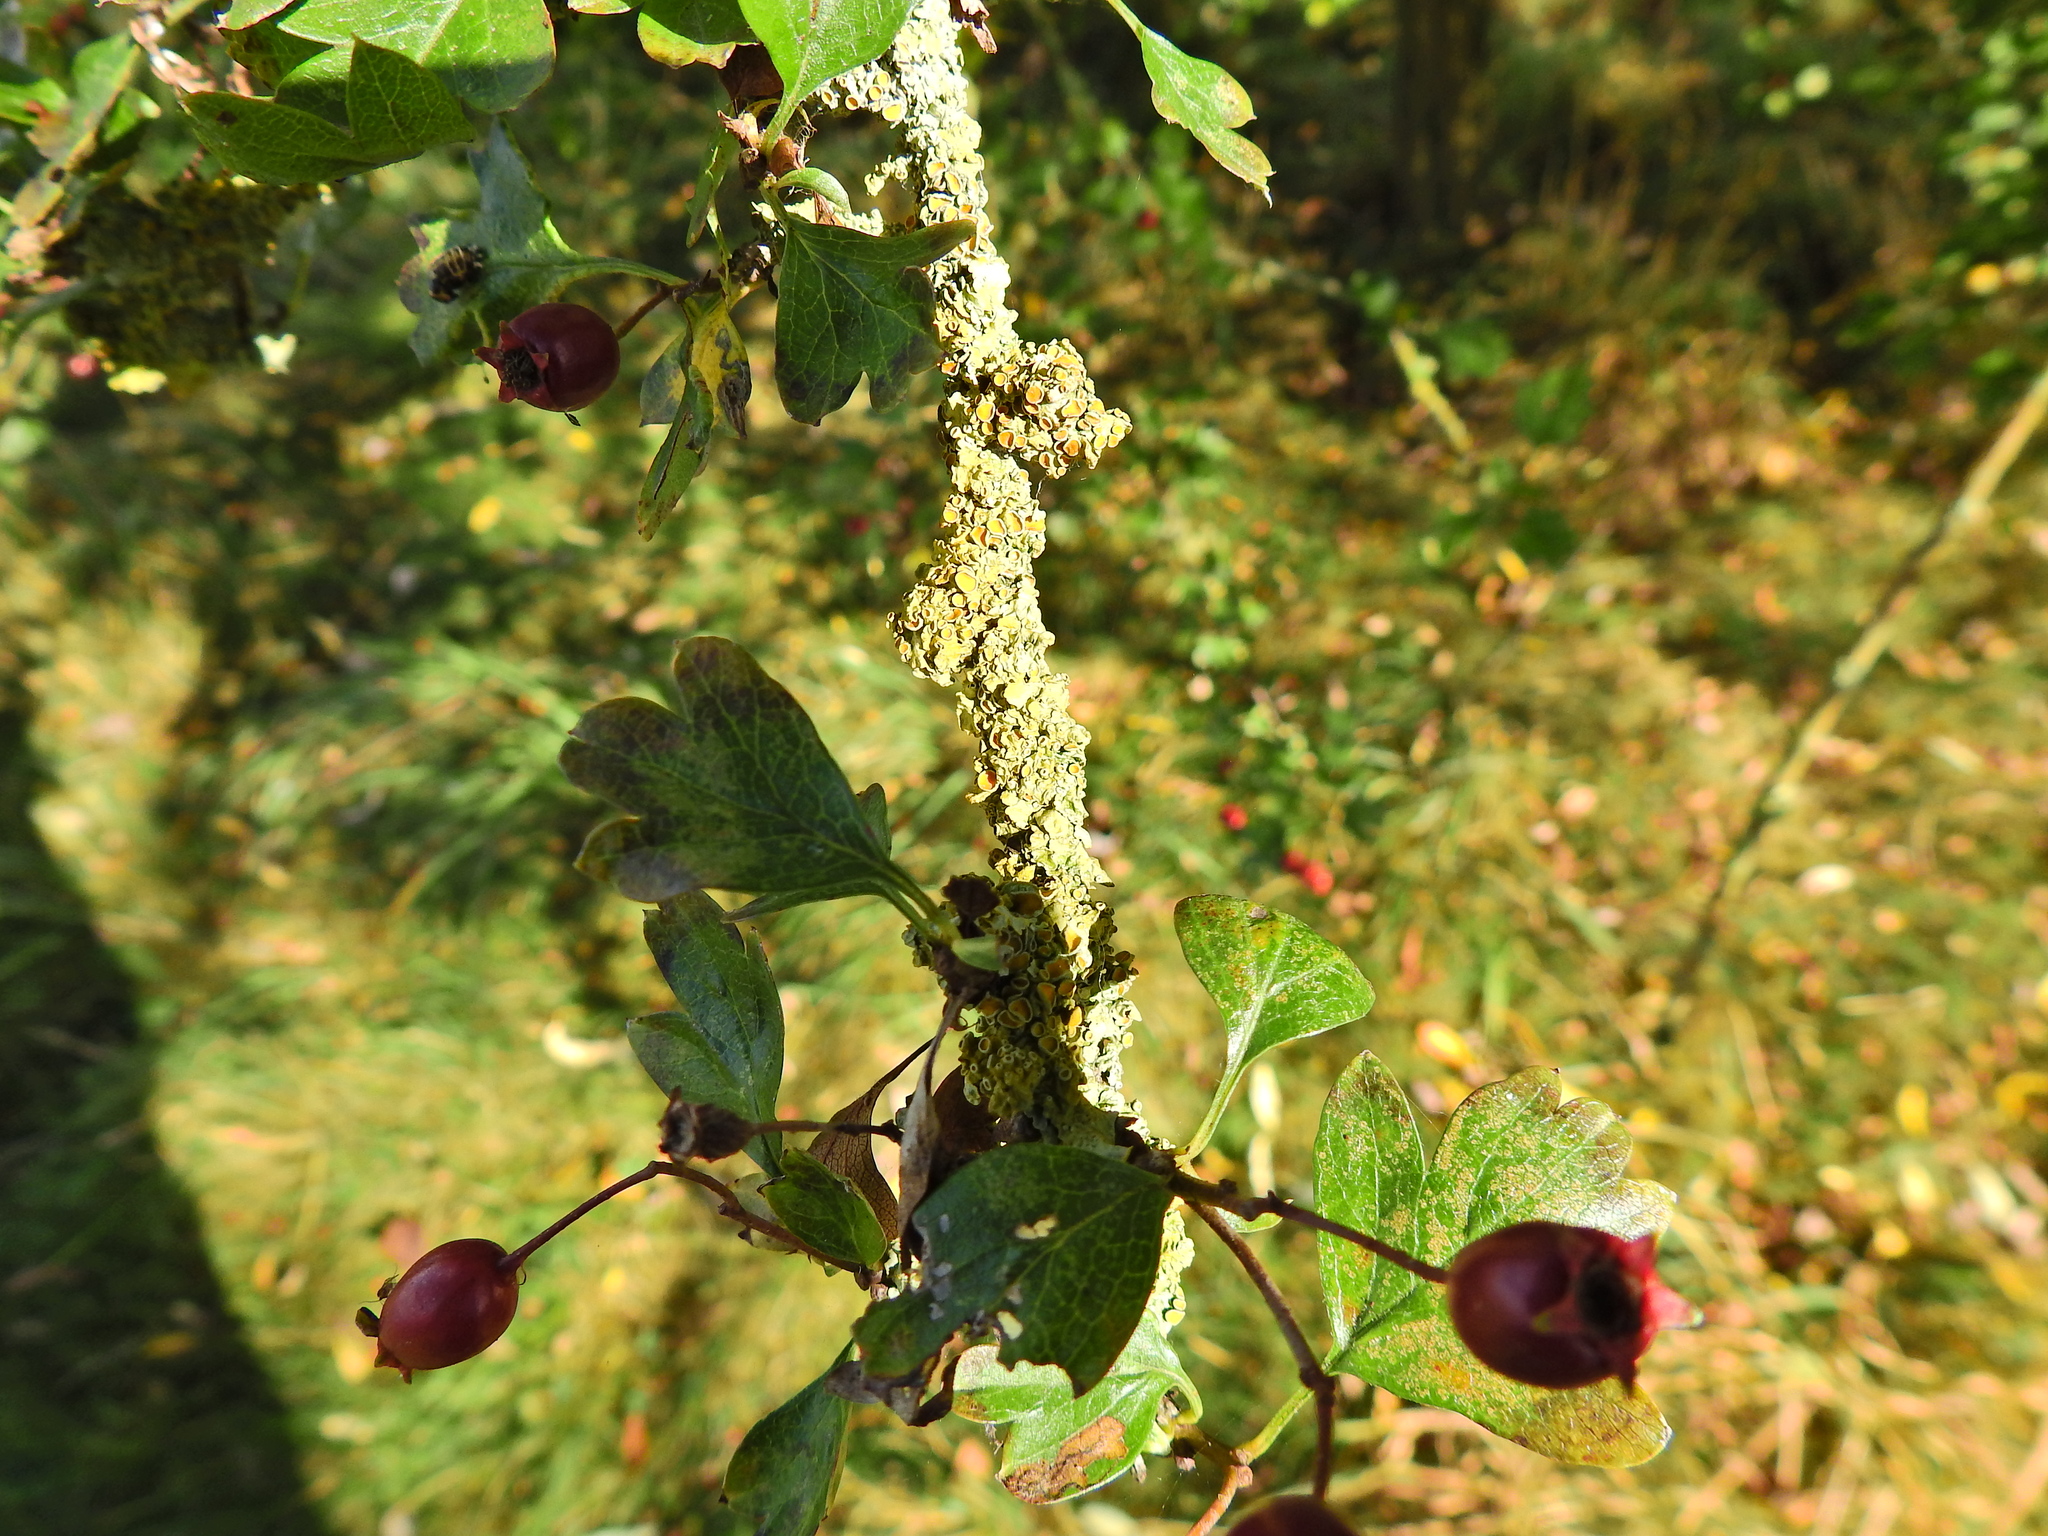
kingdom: Fungi
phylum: Ascomycota
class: Lecanoromycetes
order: Teloschistales
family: Teloschistaceae
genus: Xanthoria
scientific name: Xanthoria parietina
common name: Common orange lichen
